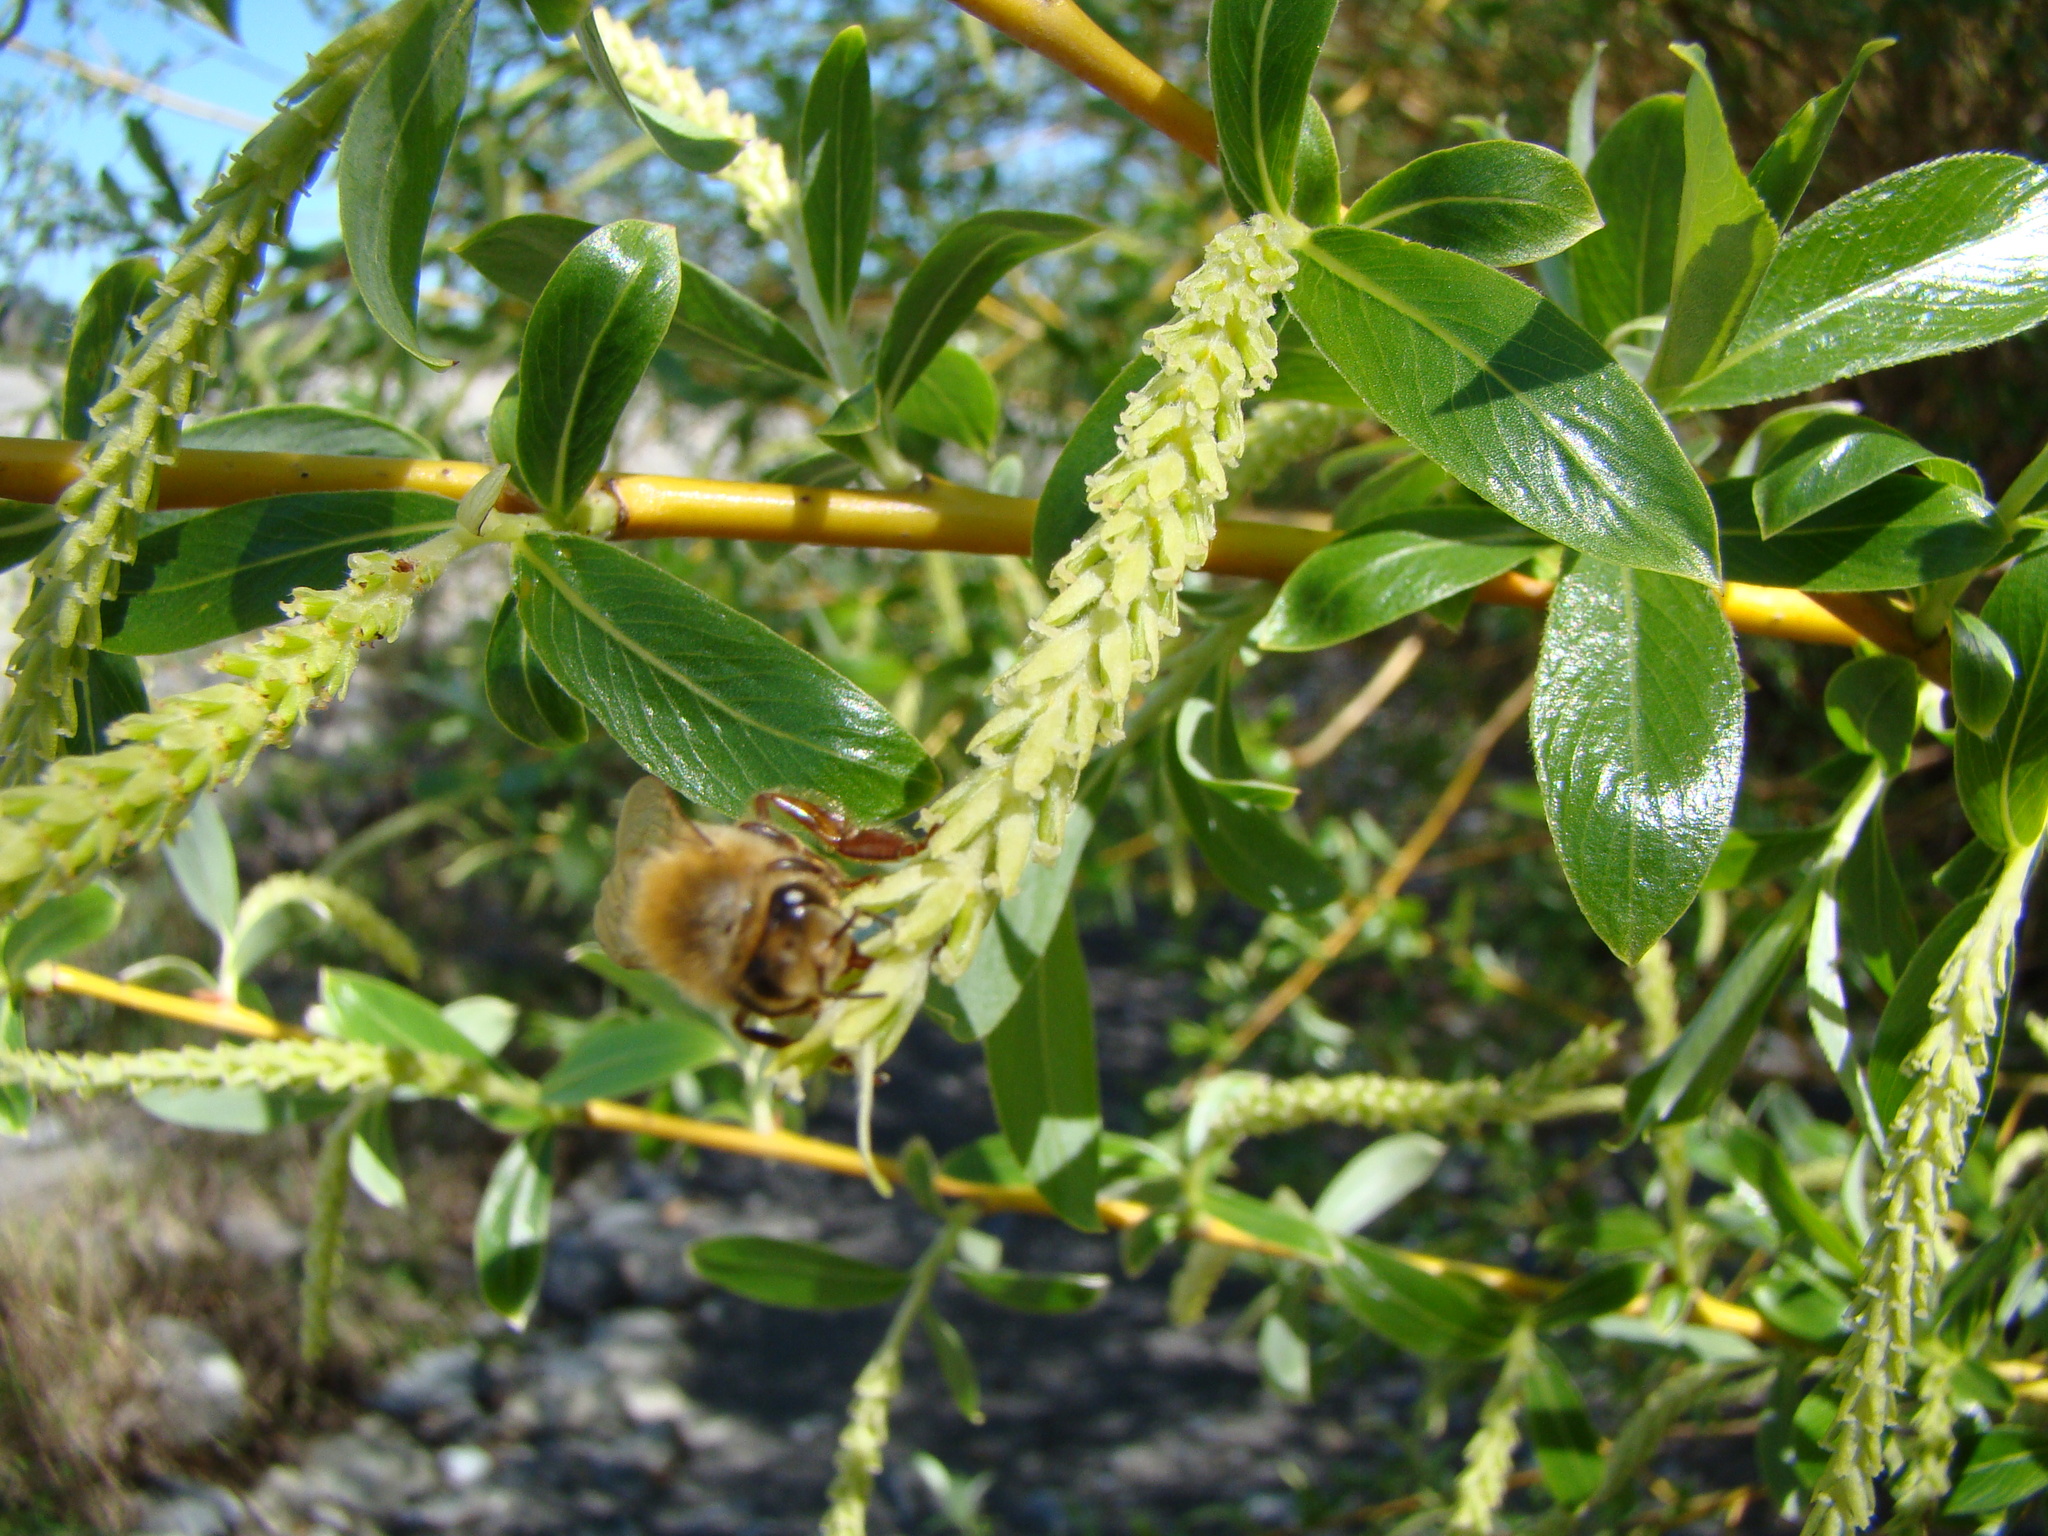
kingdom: Animalia
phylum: Arthropoda
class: Insecta
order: Hymenoptera
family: Apidae
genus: Apis
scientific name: Apis mellifera
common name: Honey bee
